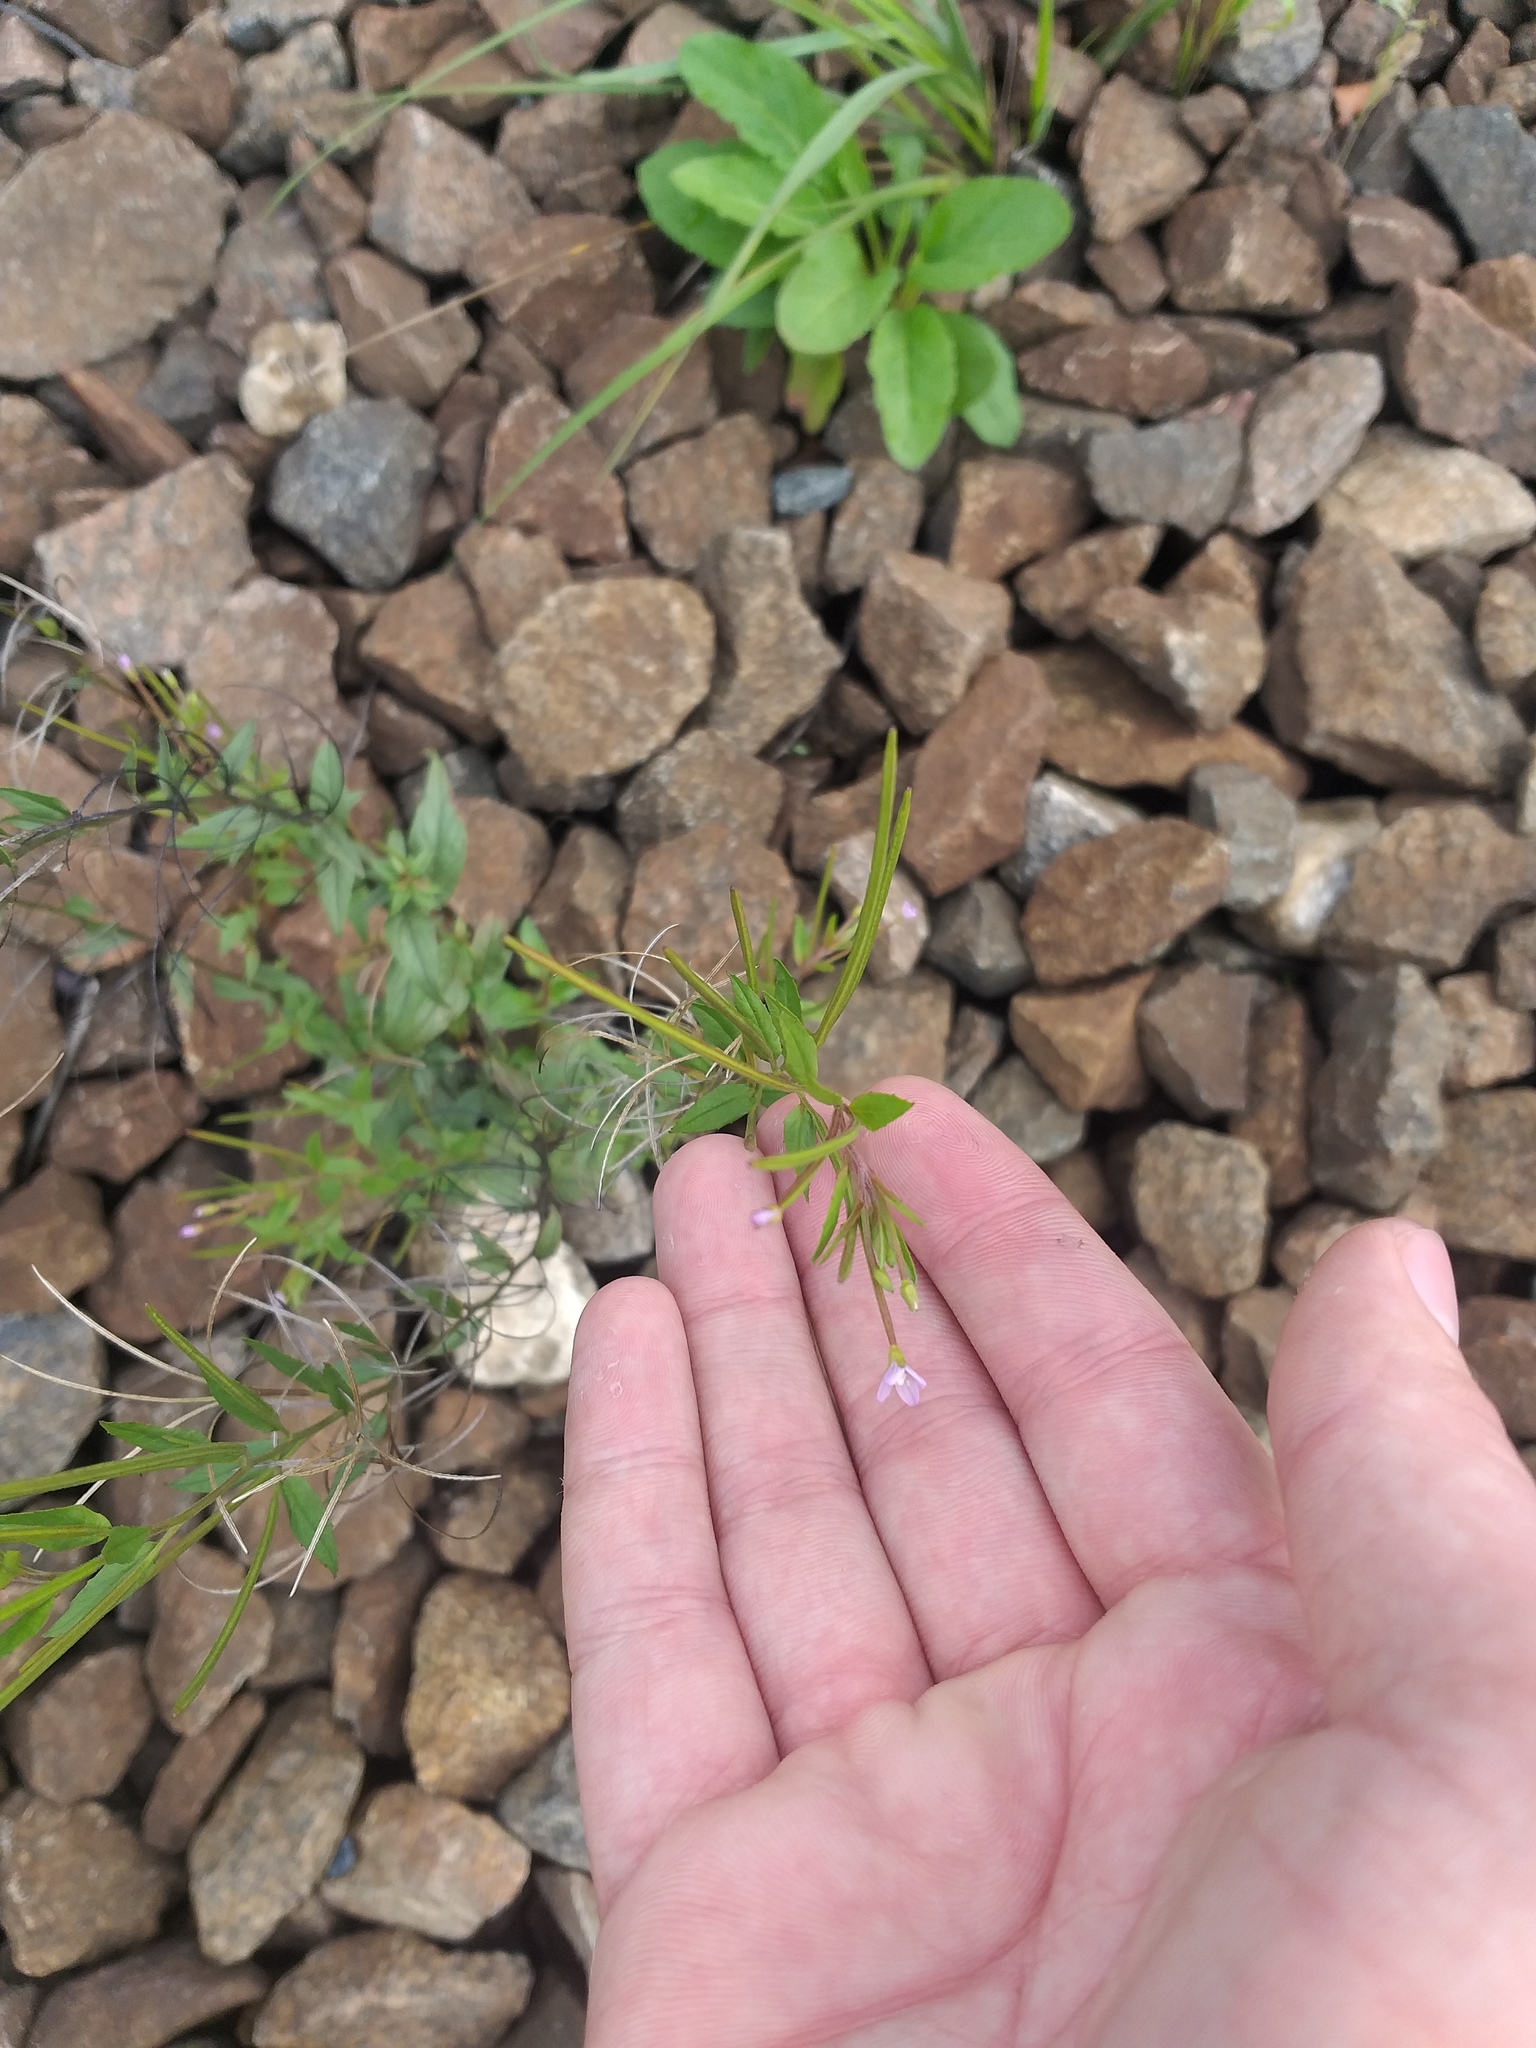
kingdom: Plantae
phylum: Tracheophyta
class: Magnoliopsida
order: Myrtales
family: Onagraceae
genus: Epilobium
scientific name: Epilobium ciliatum
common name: American willowherb
